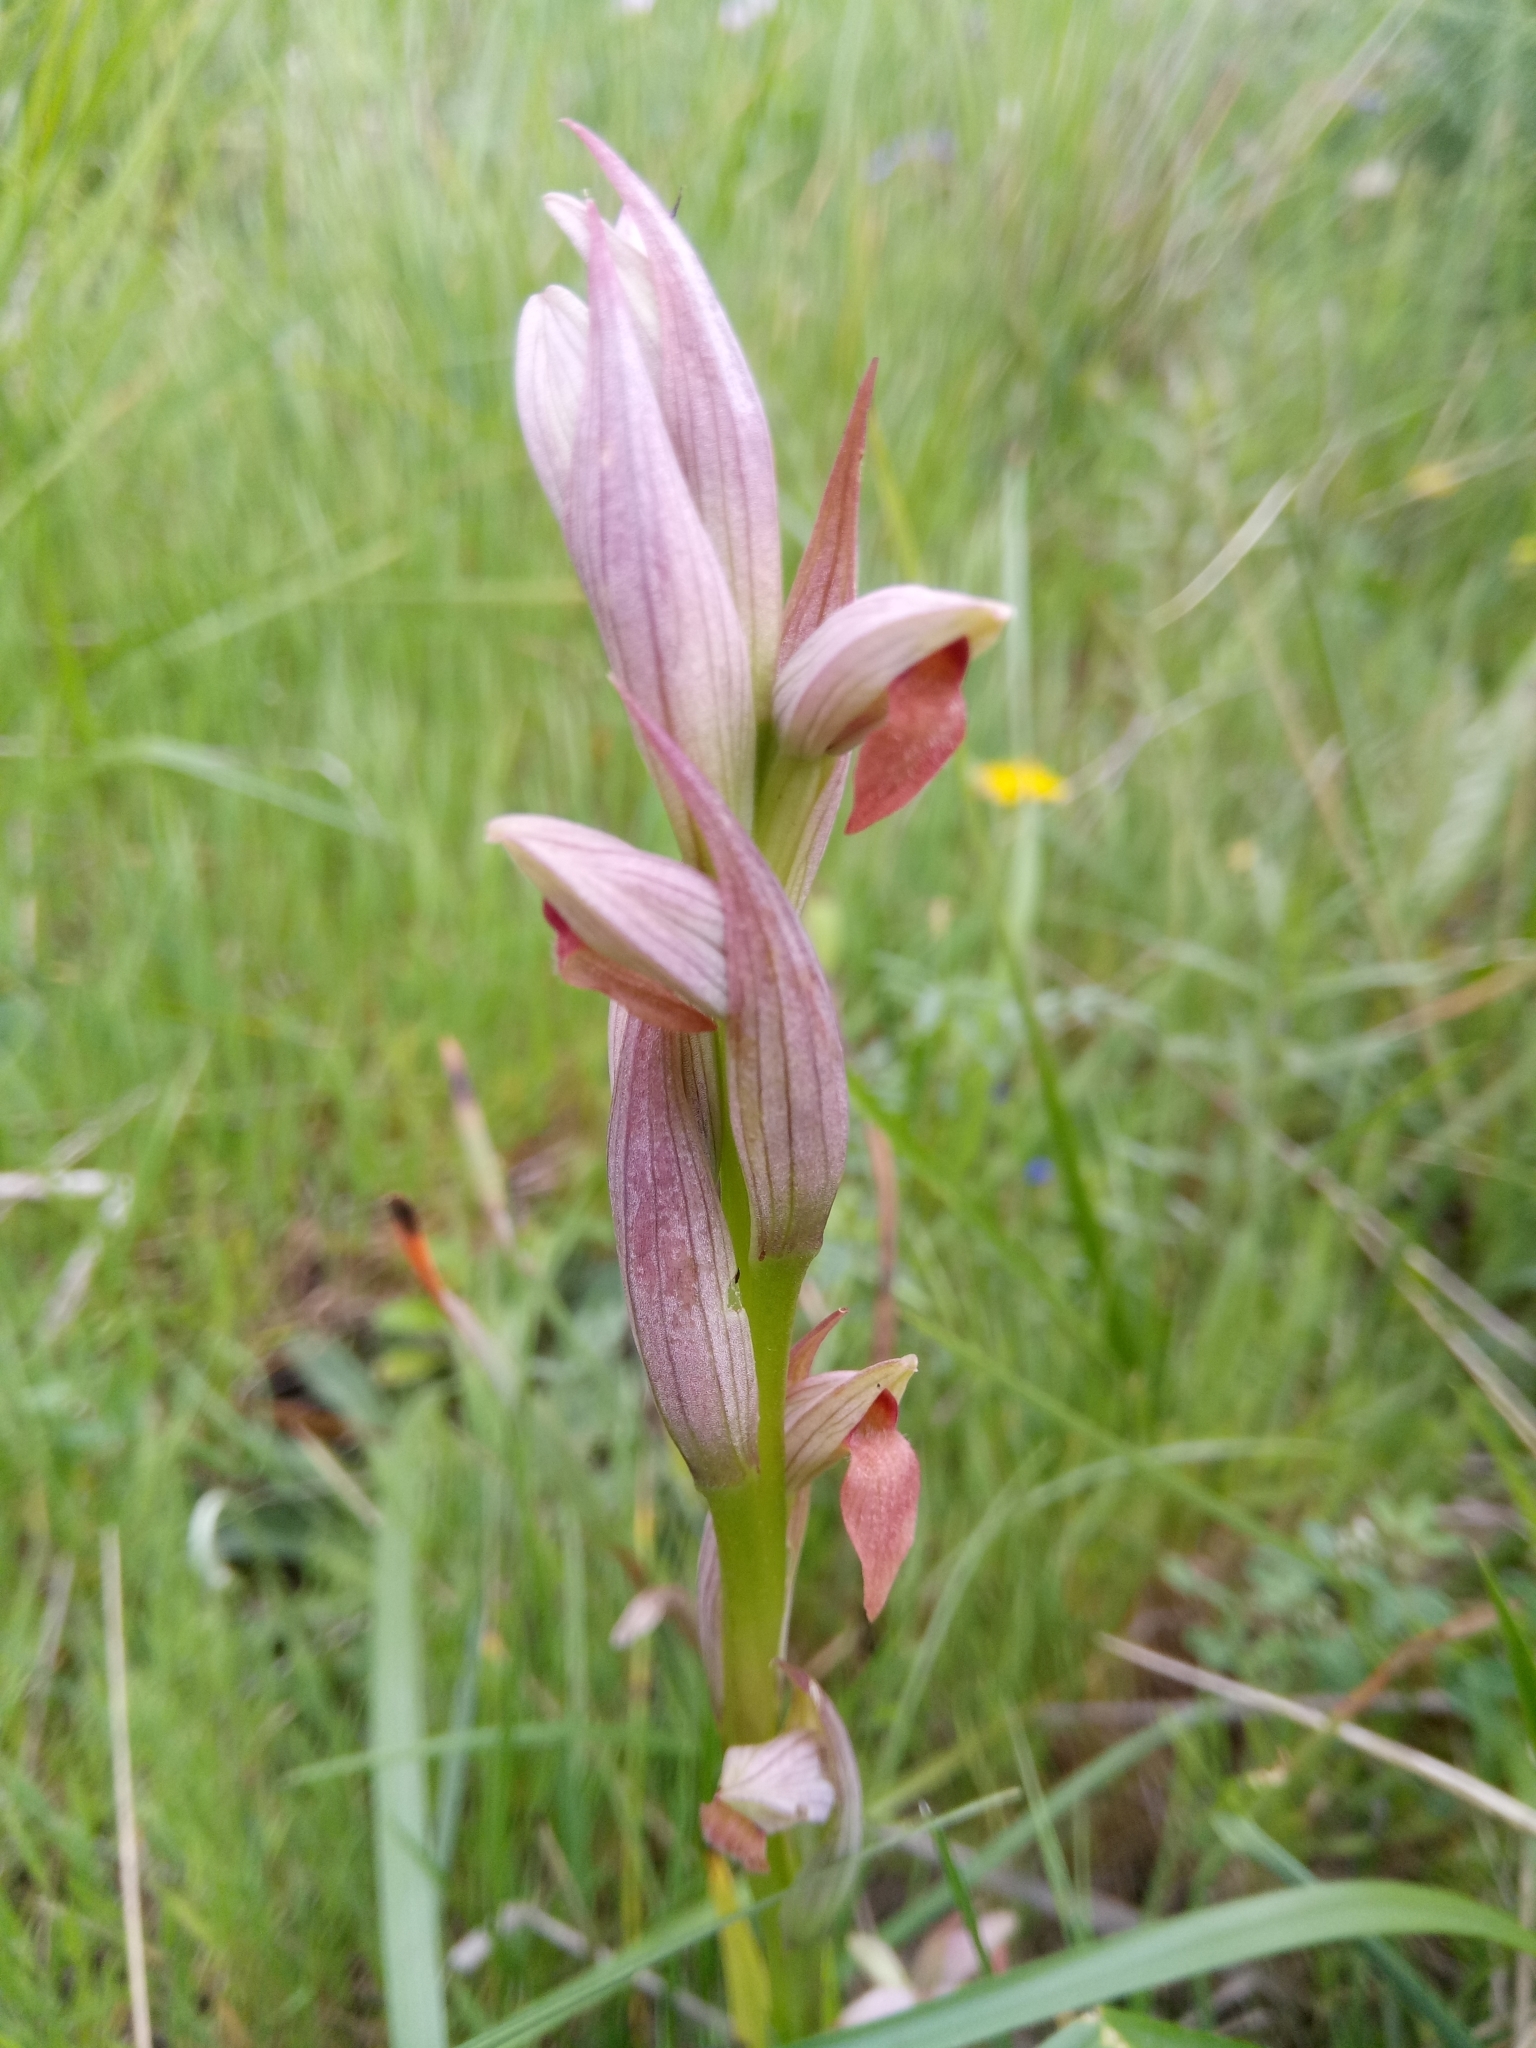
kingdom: Plantae
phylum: Tracheophyta
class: Liliopsida
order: Asparagales
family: Orchidaceae
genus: Serapias
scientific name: Serapias parviflora
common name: Small-flowered tongue-orchid
